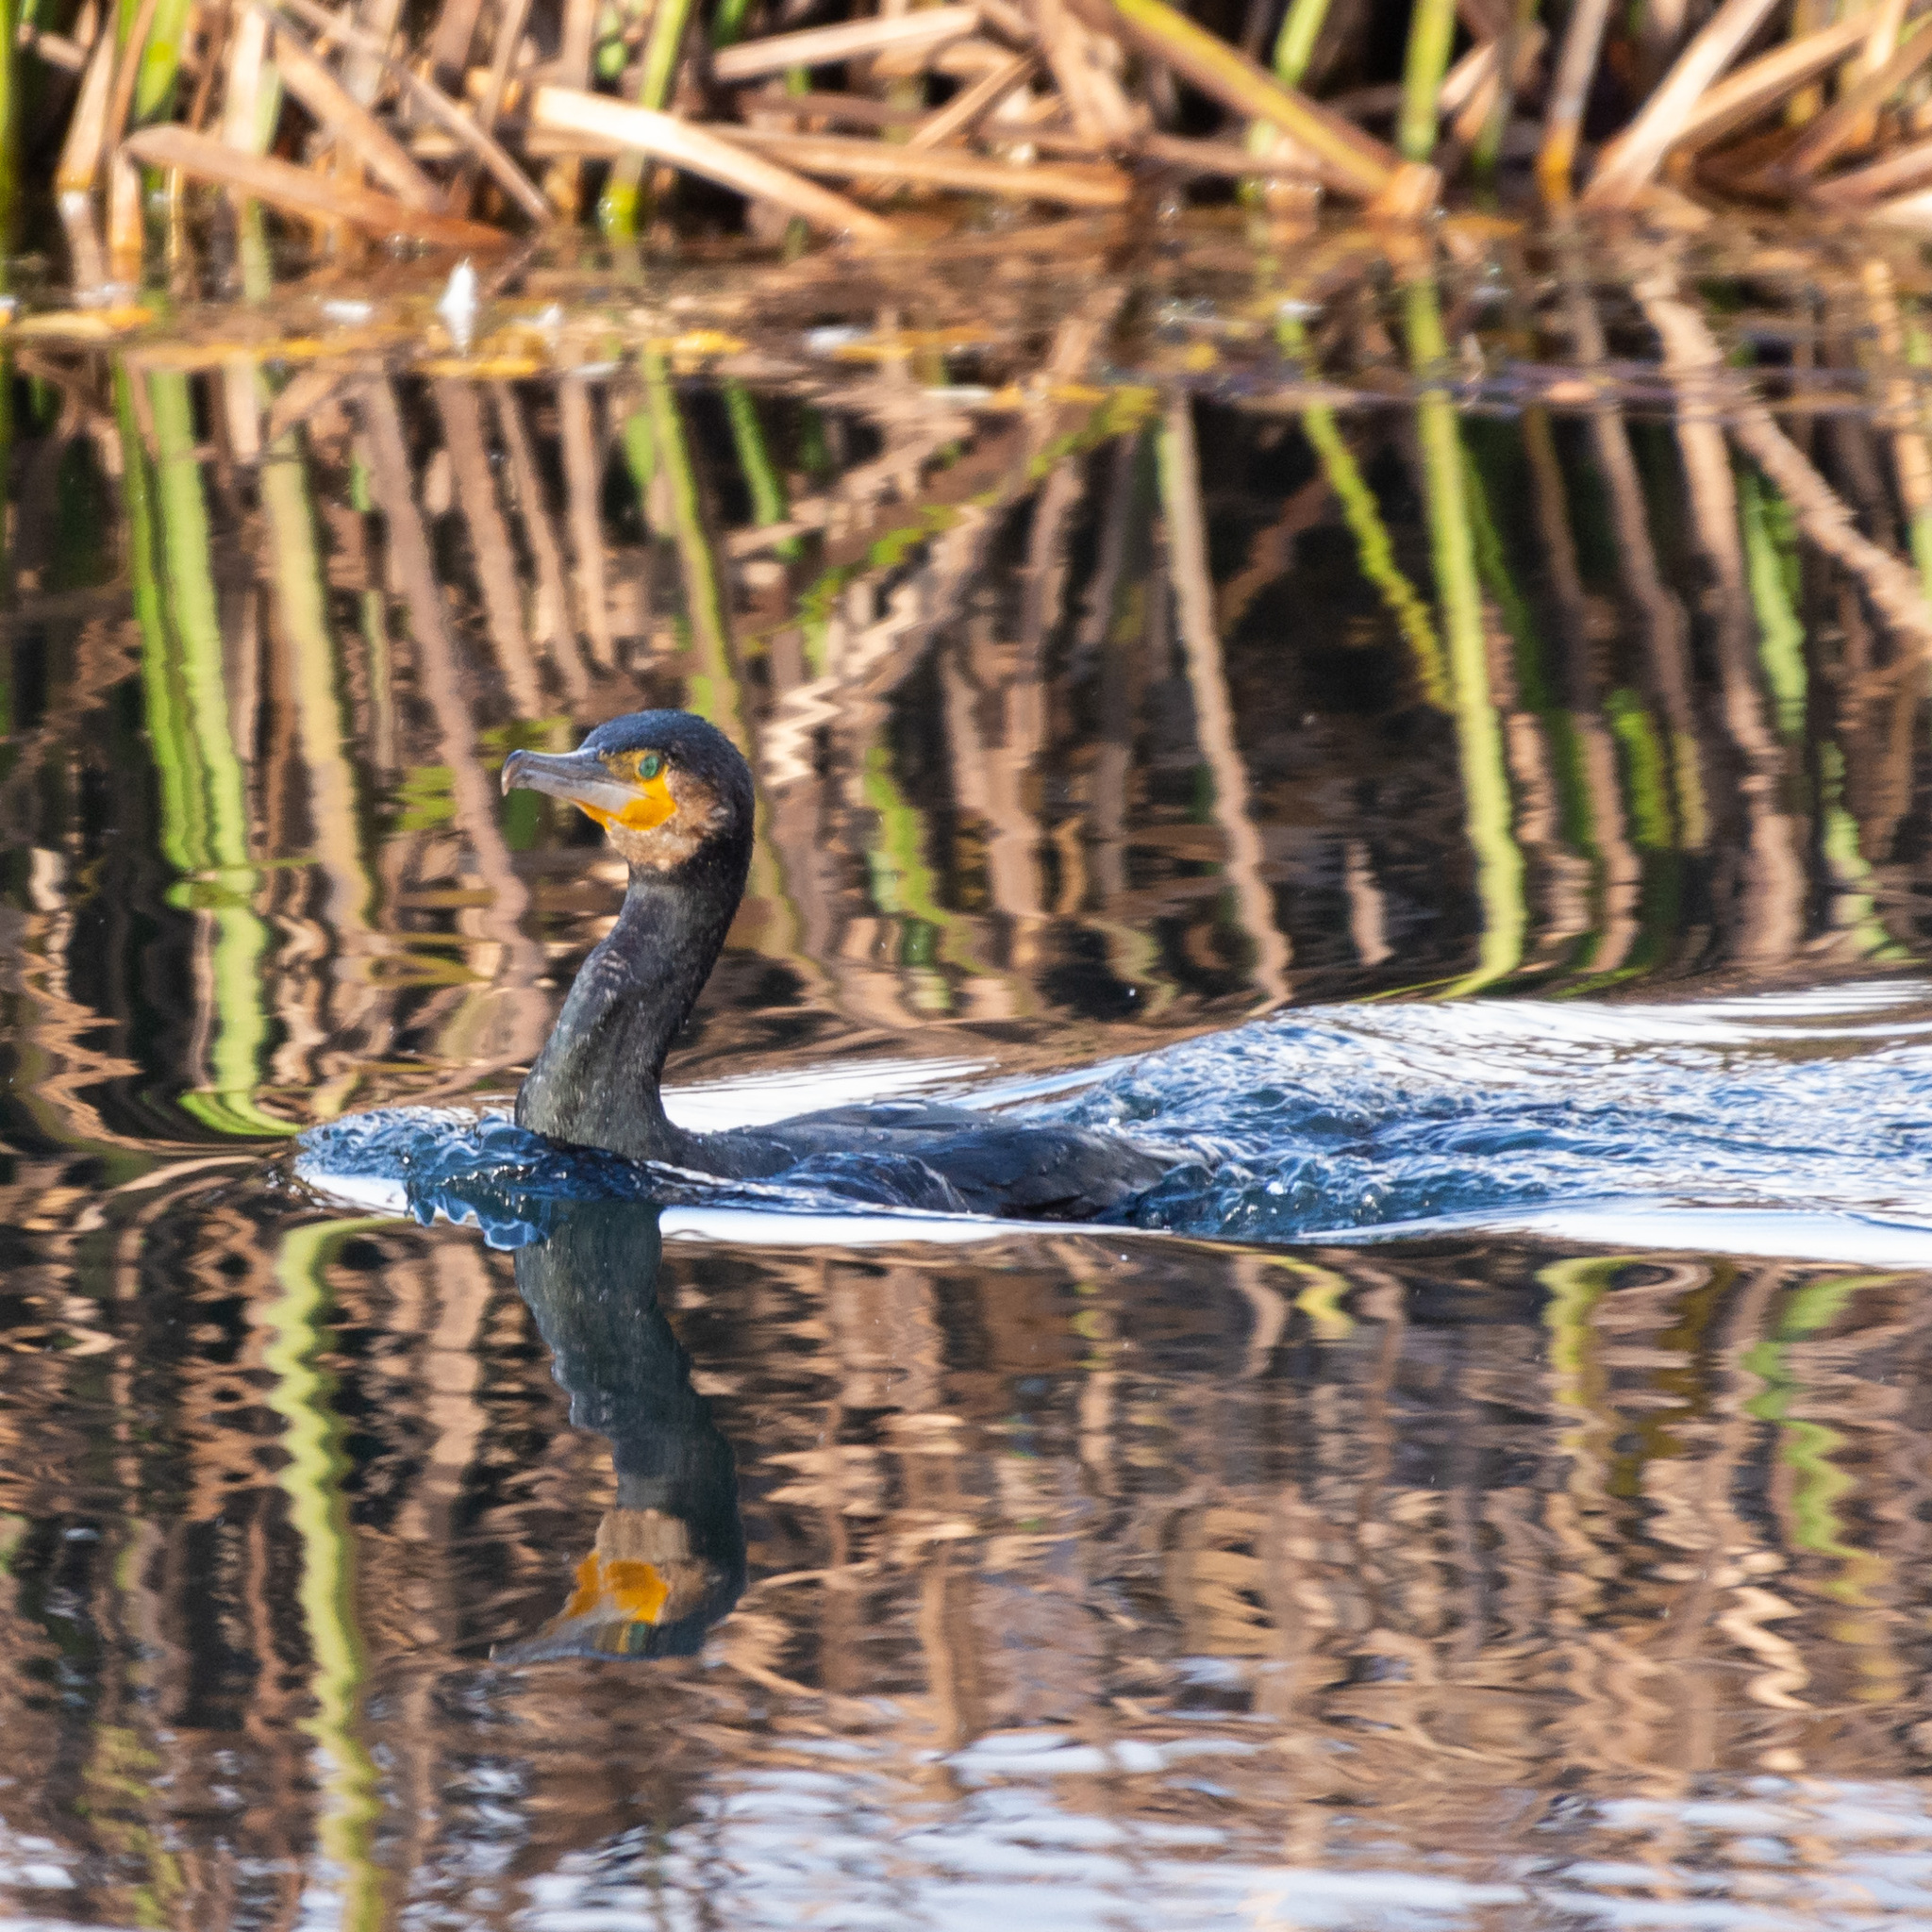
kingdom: Animalia
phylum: Chordata
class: Aves
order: Suliformes
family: Phalacrocoracidae
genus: Phalacrocorax
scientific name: Phalacrocorax carbo
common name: Great cormorant
